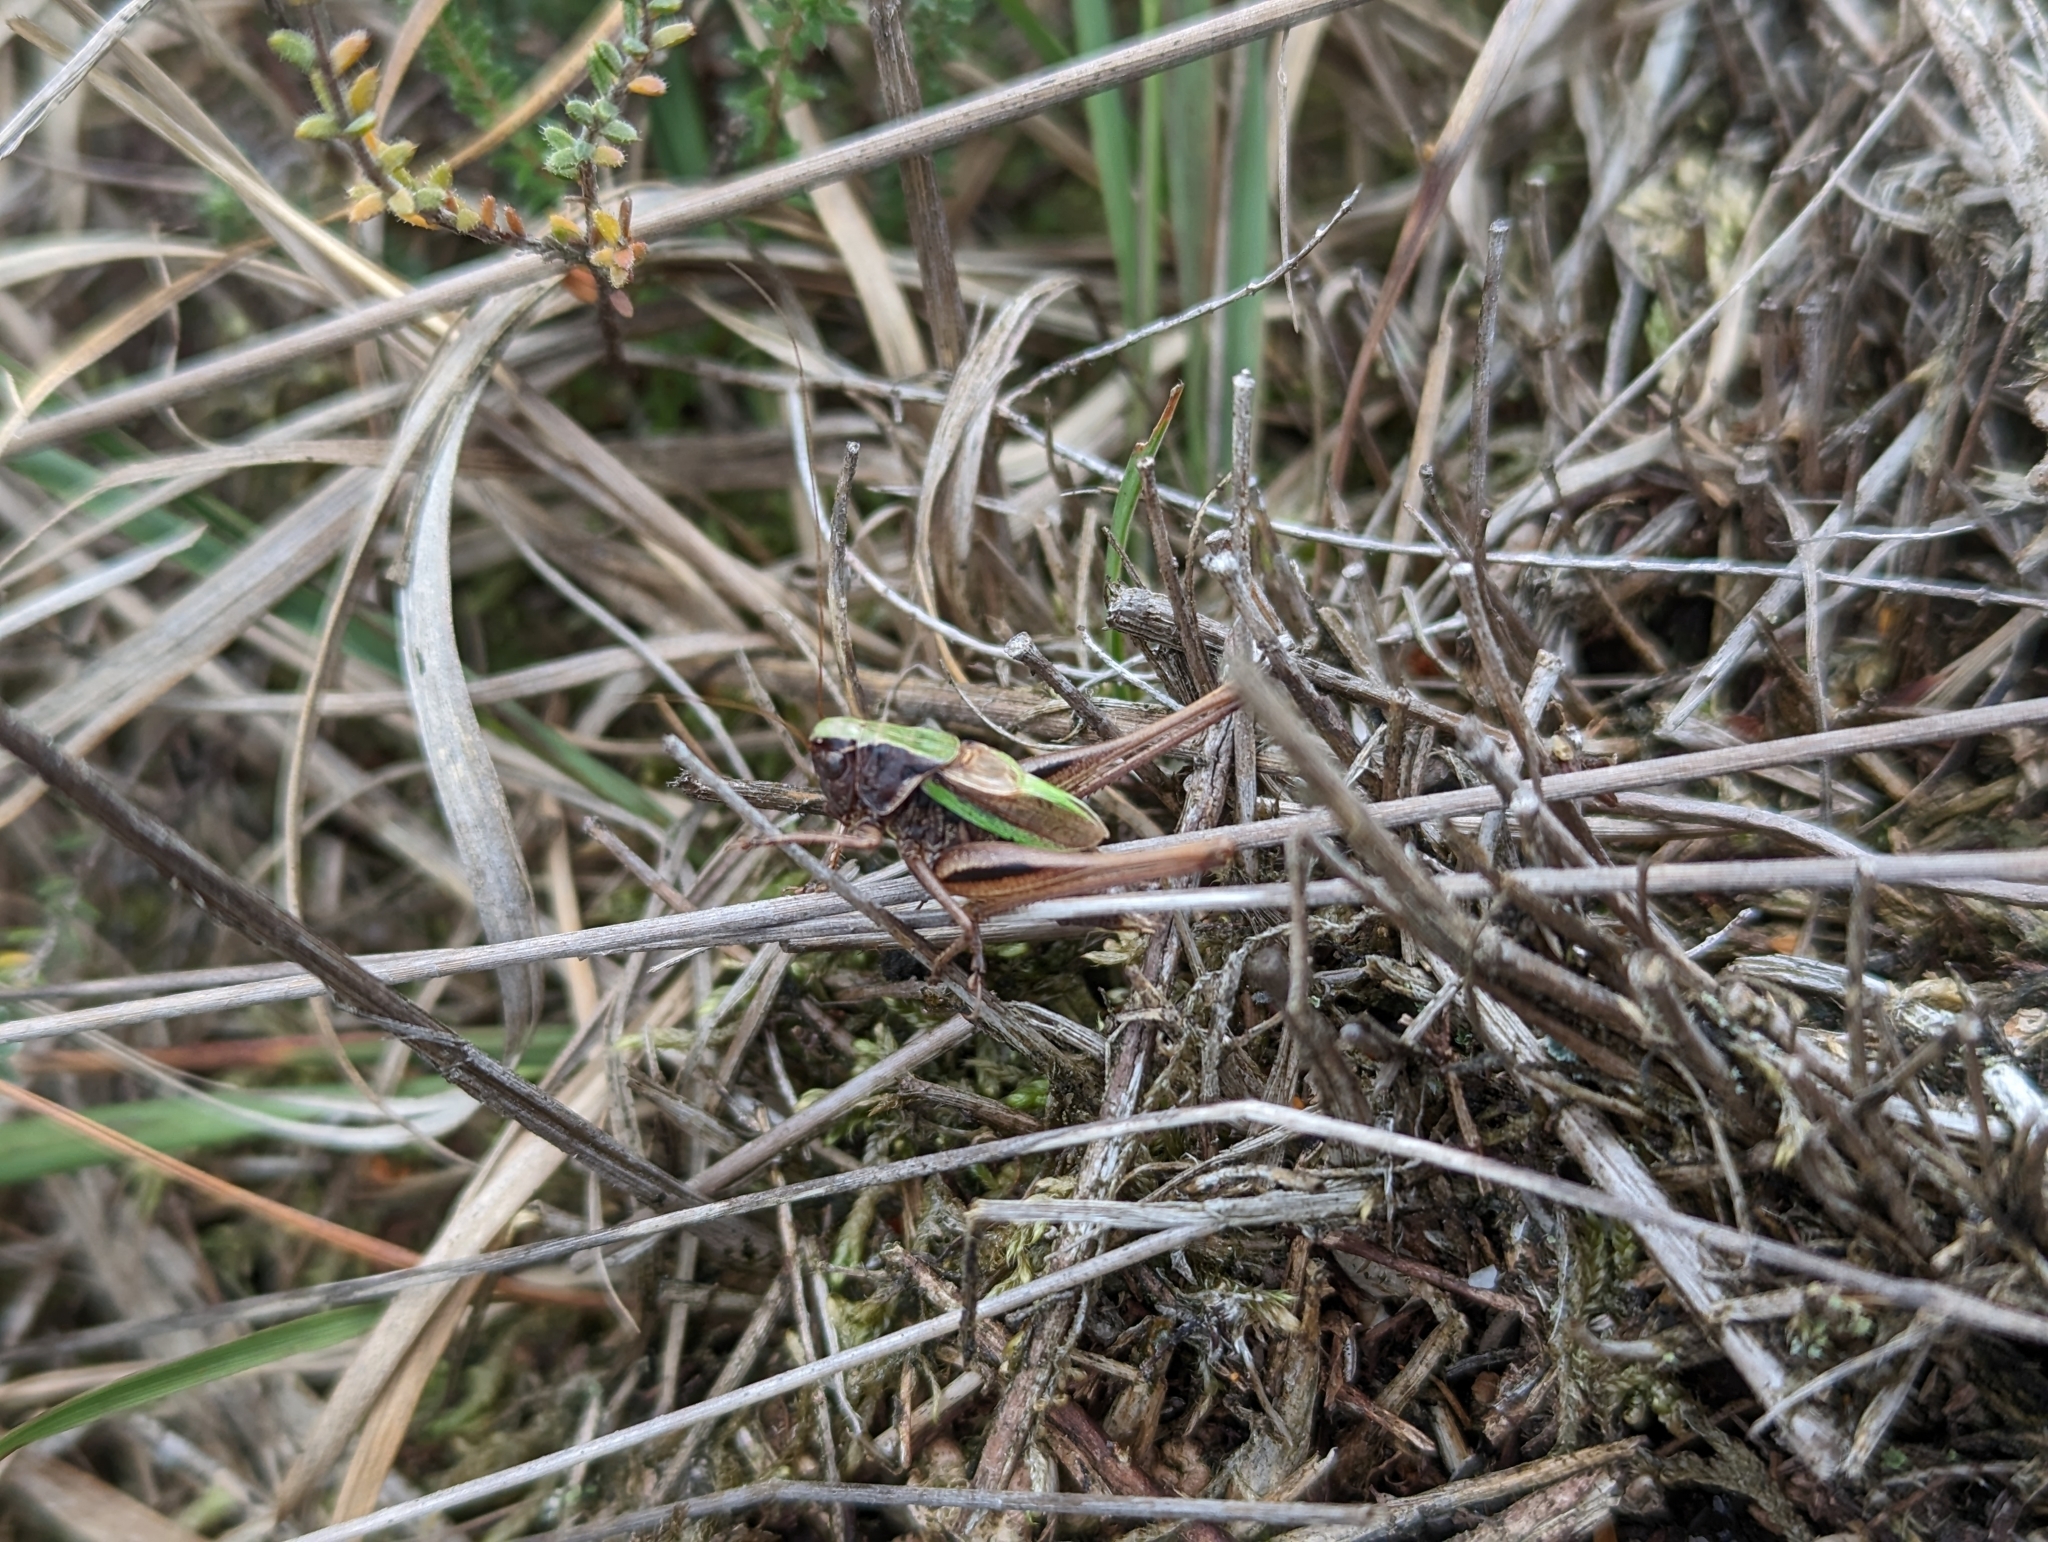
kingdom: Animalia
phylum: Arthropoda
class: Insecta
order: Orthoptera
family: Tettigoniidae
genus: Metrioptera
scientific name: Metrioptera brachyptera
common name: Bog bush-cricket
